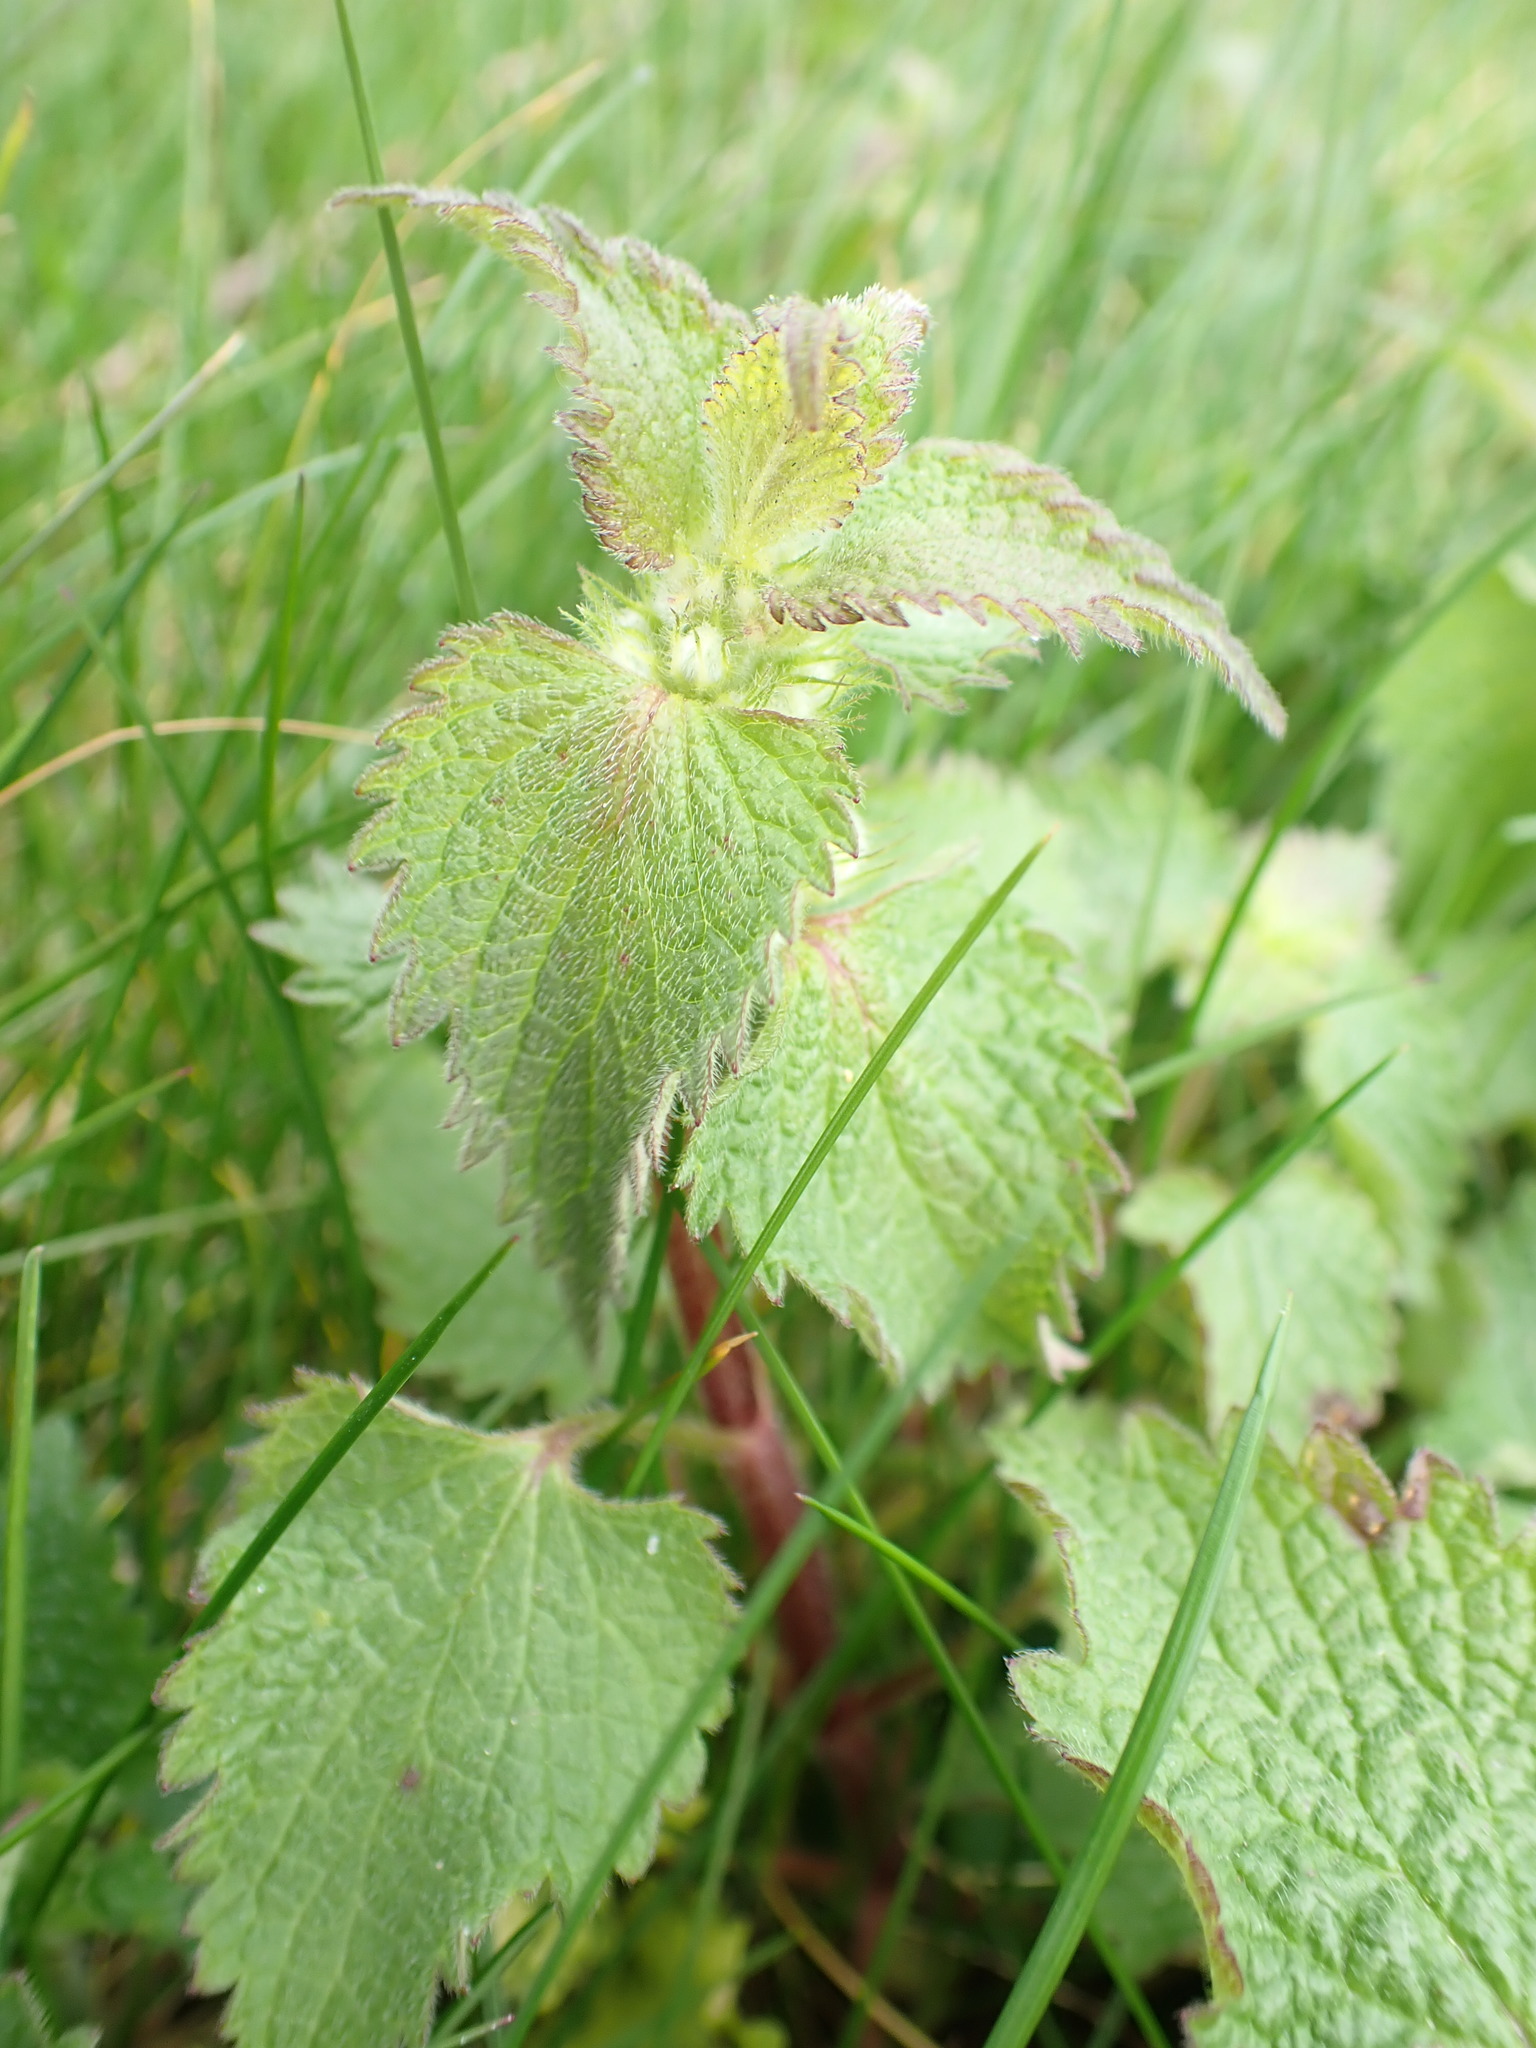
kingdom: Plantae
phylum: Tracheophyta
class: Magnoliopsida
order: Lamiales
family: Lamiaceae
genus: Lamium
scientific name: Lamium album
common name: White dead-nettle
